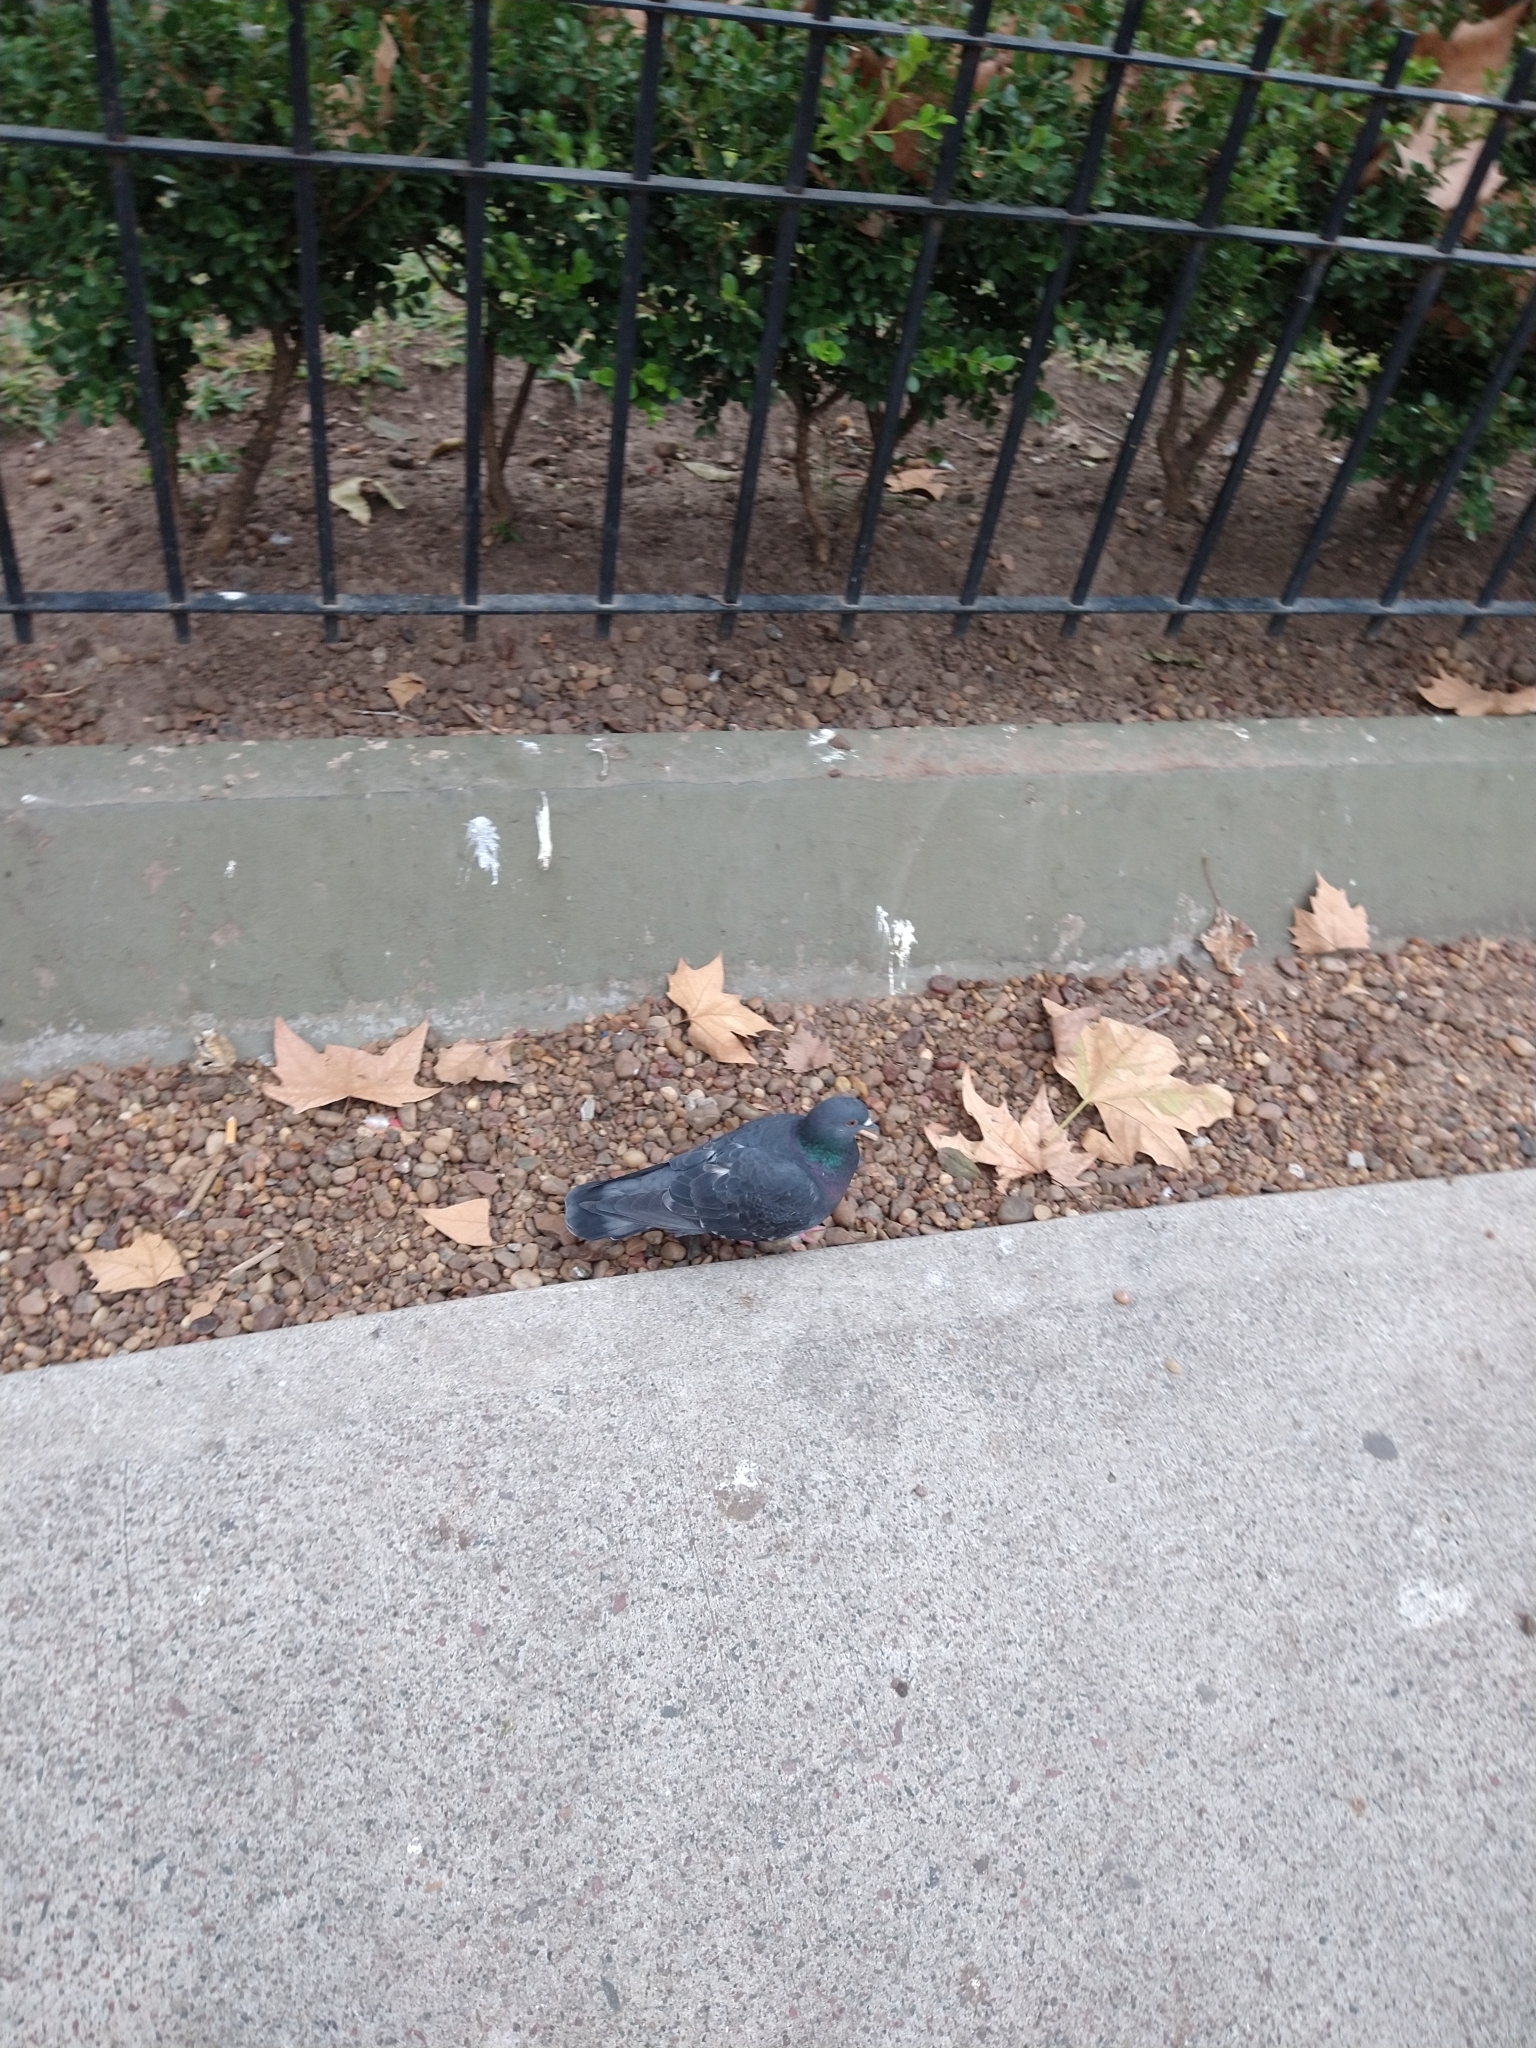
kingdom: Animalia
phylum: Chordata
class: Aves
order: Columbiformes
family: Columbidae
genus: Columba
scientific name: Columba livia
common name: Rock pigeon
